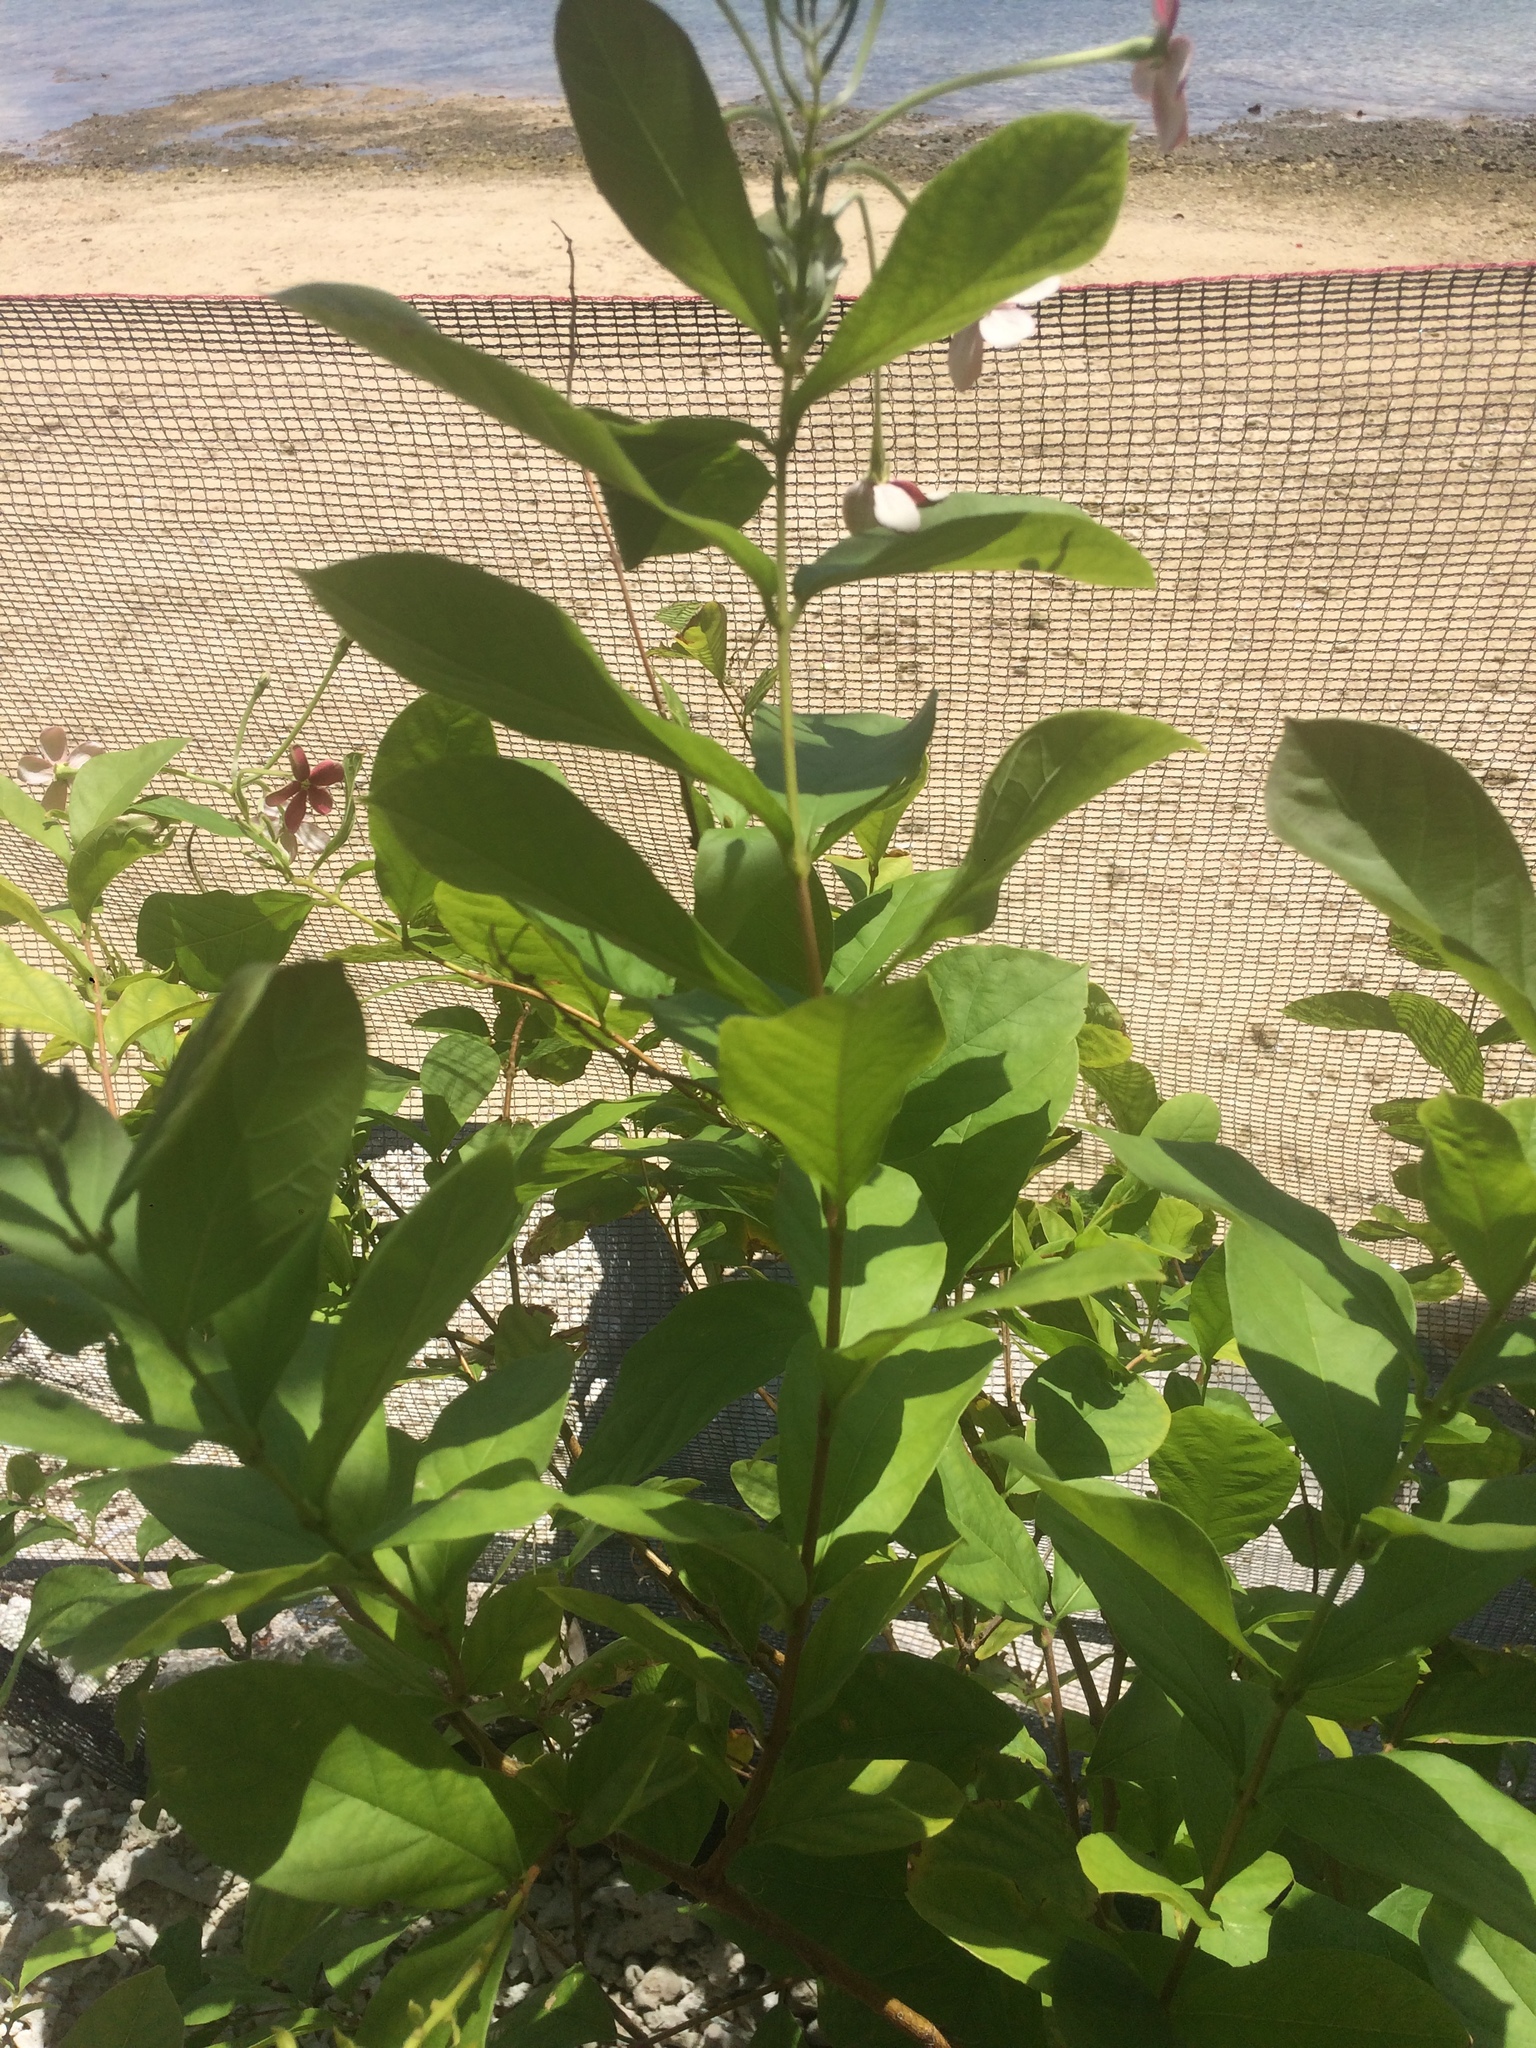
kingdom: Plantae
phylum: Tracheophyta
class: Magnoliopsida
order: Myrtales
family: Combretaceae
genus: Combretum
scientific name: Combretum indicum
